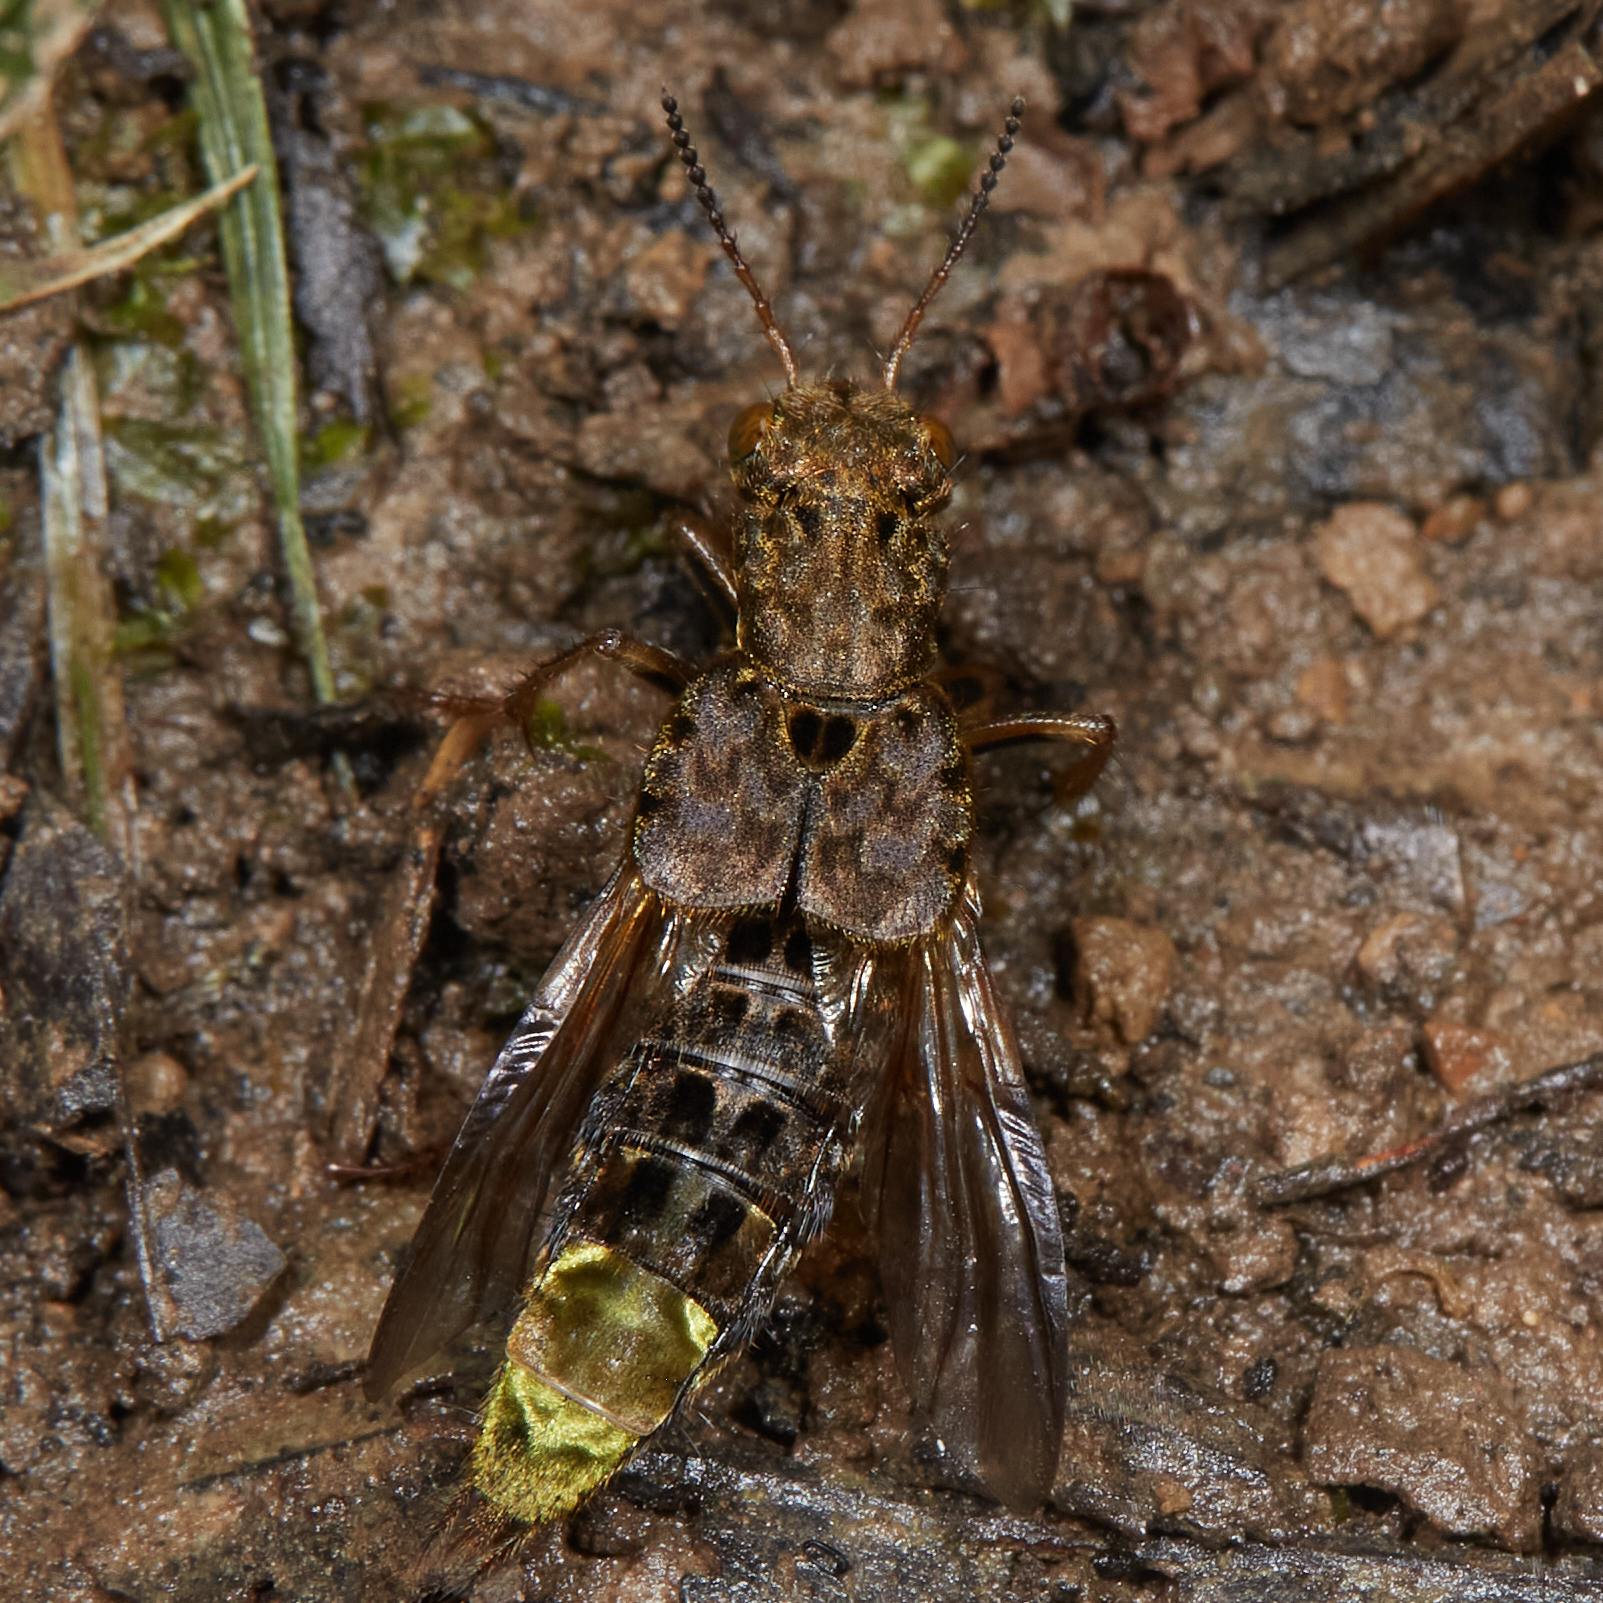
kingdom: Animalia
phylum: Arthropoda
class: Insecta
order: Coleoptera
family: Staphylinidae
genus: Ontholestes
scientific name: Ontholestes cingulatus
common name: Gold-and-brown rove beetle
